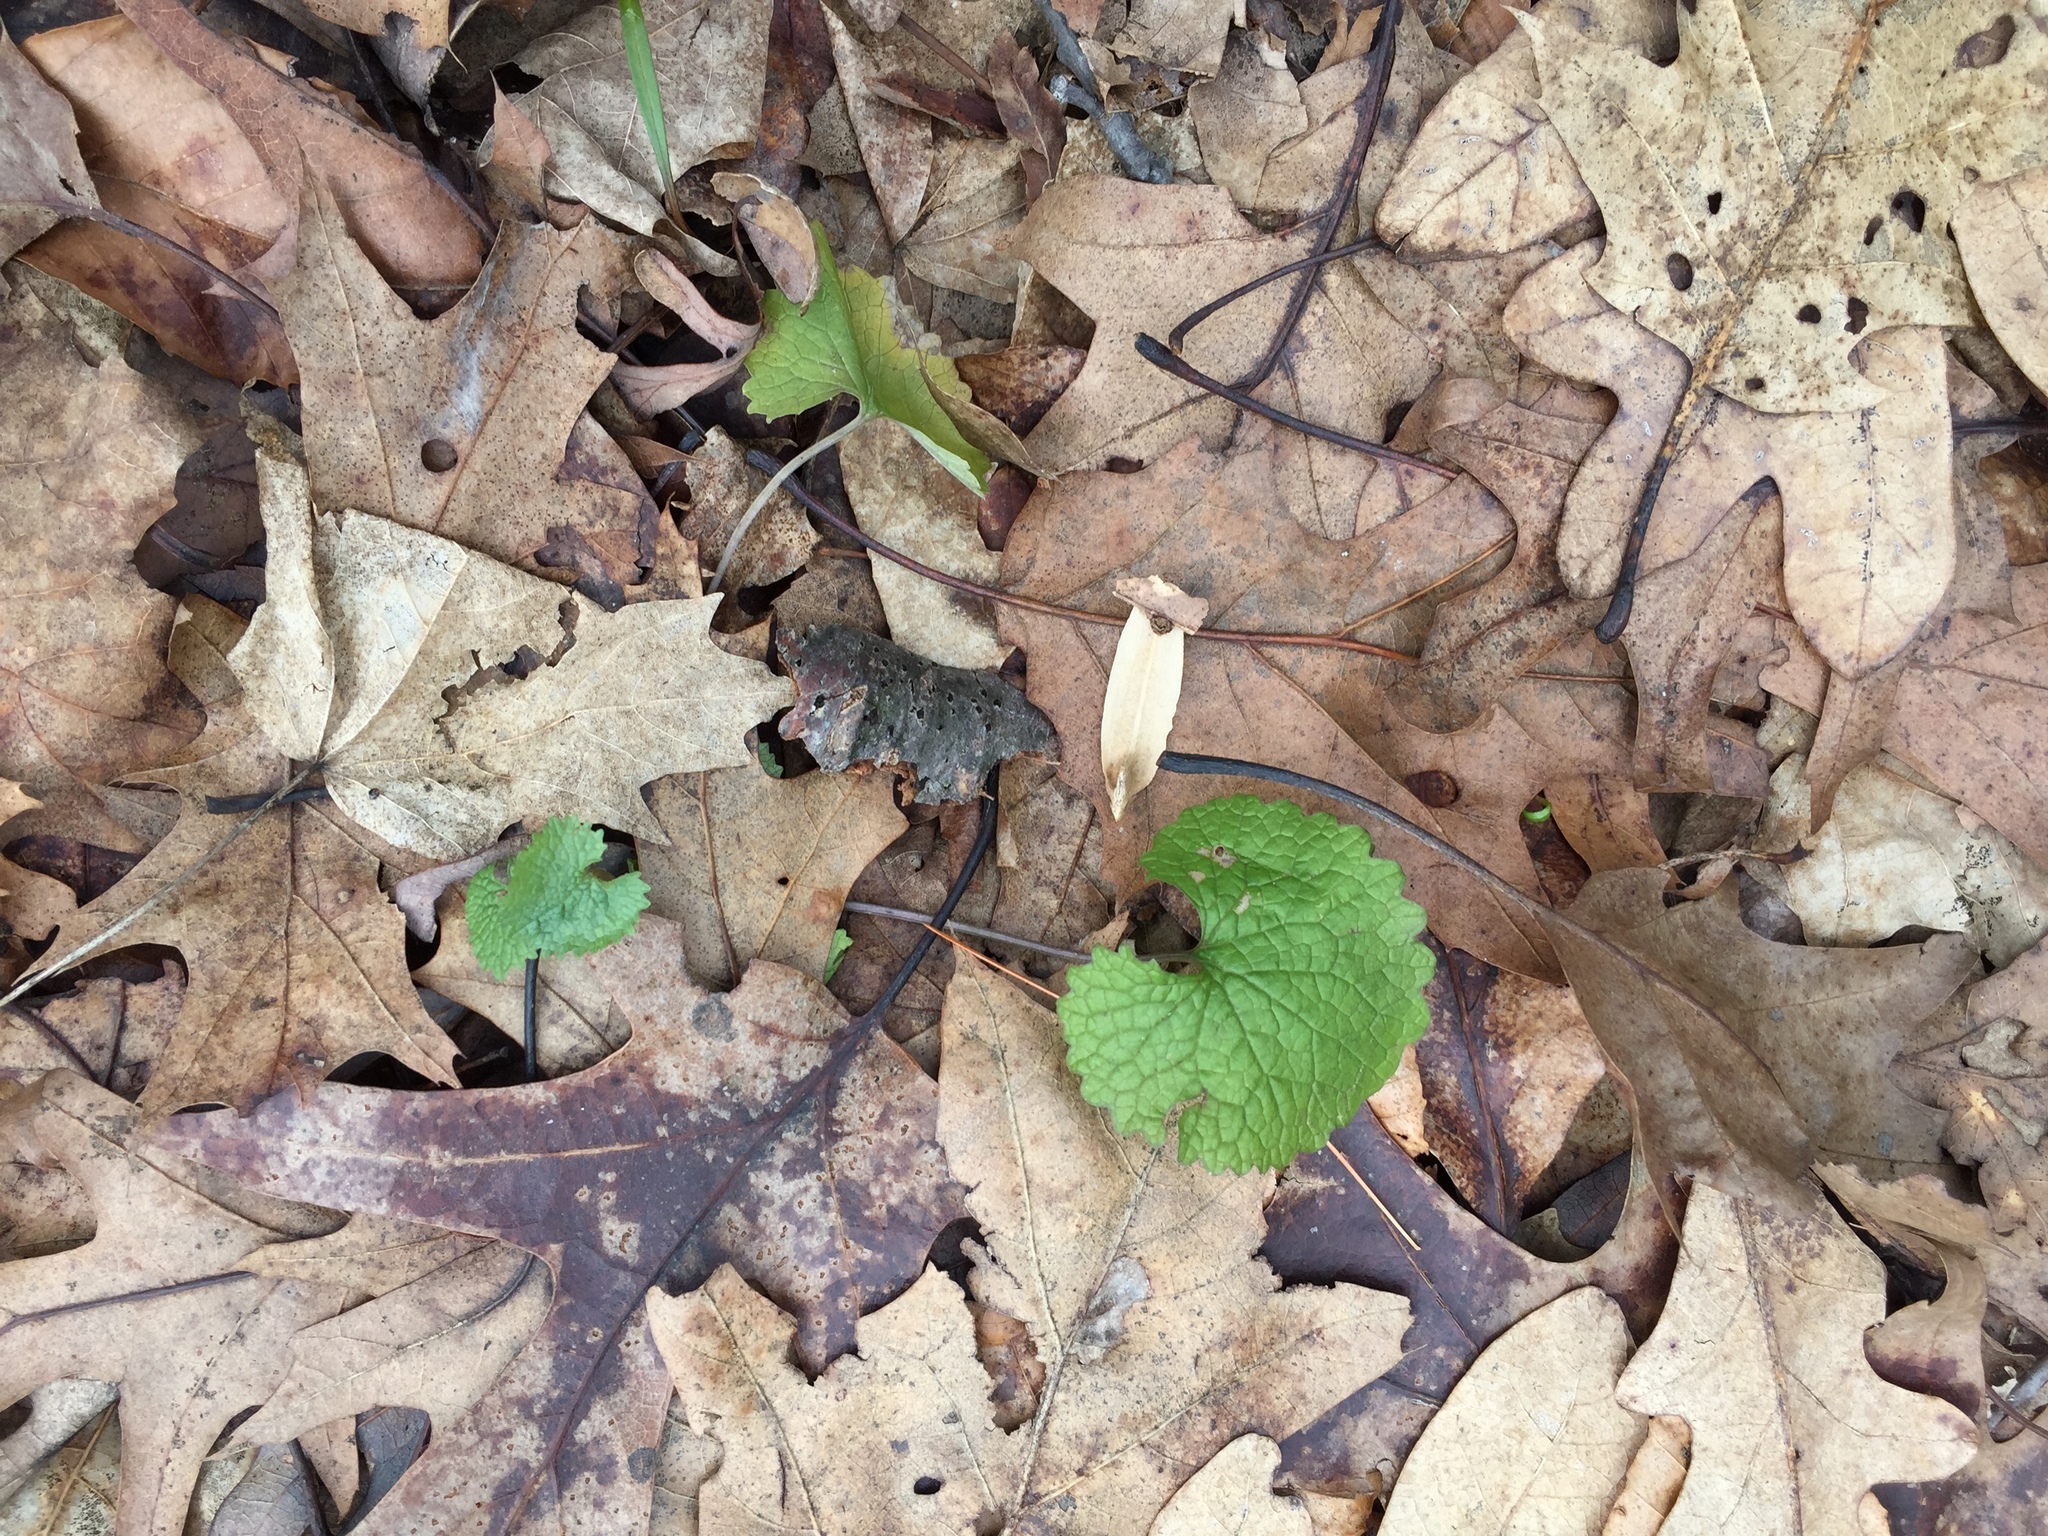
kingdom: Plantae
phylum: Tracheophyta
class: Magnoliopsida
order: Brassicales
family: Brassicaceae
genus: Alliaria
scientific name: Alliaria petiolata
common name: Garlic mustard
